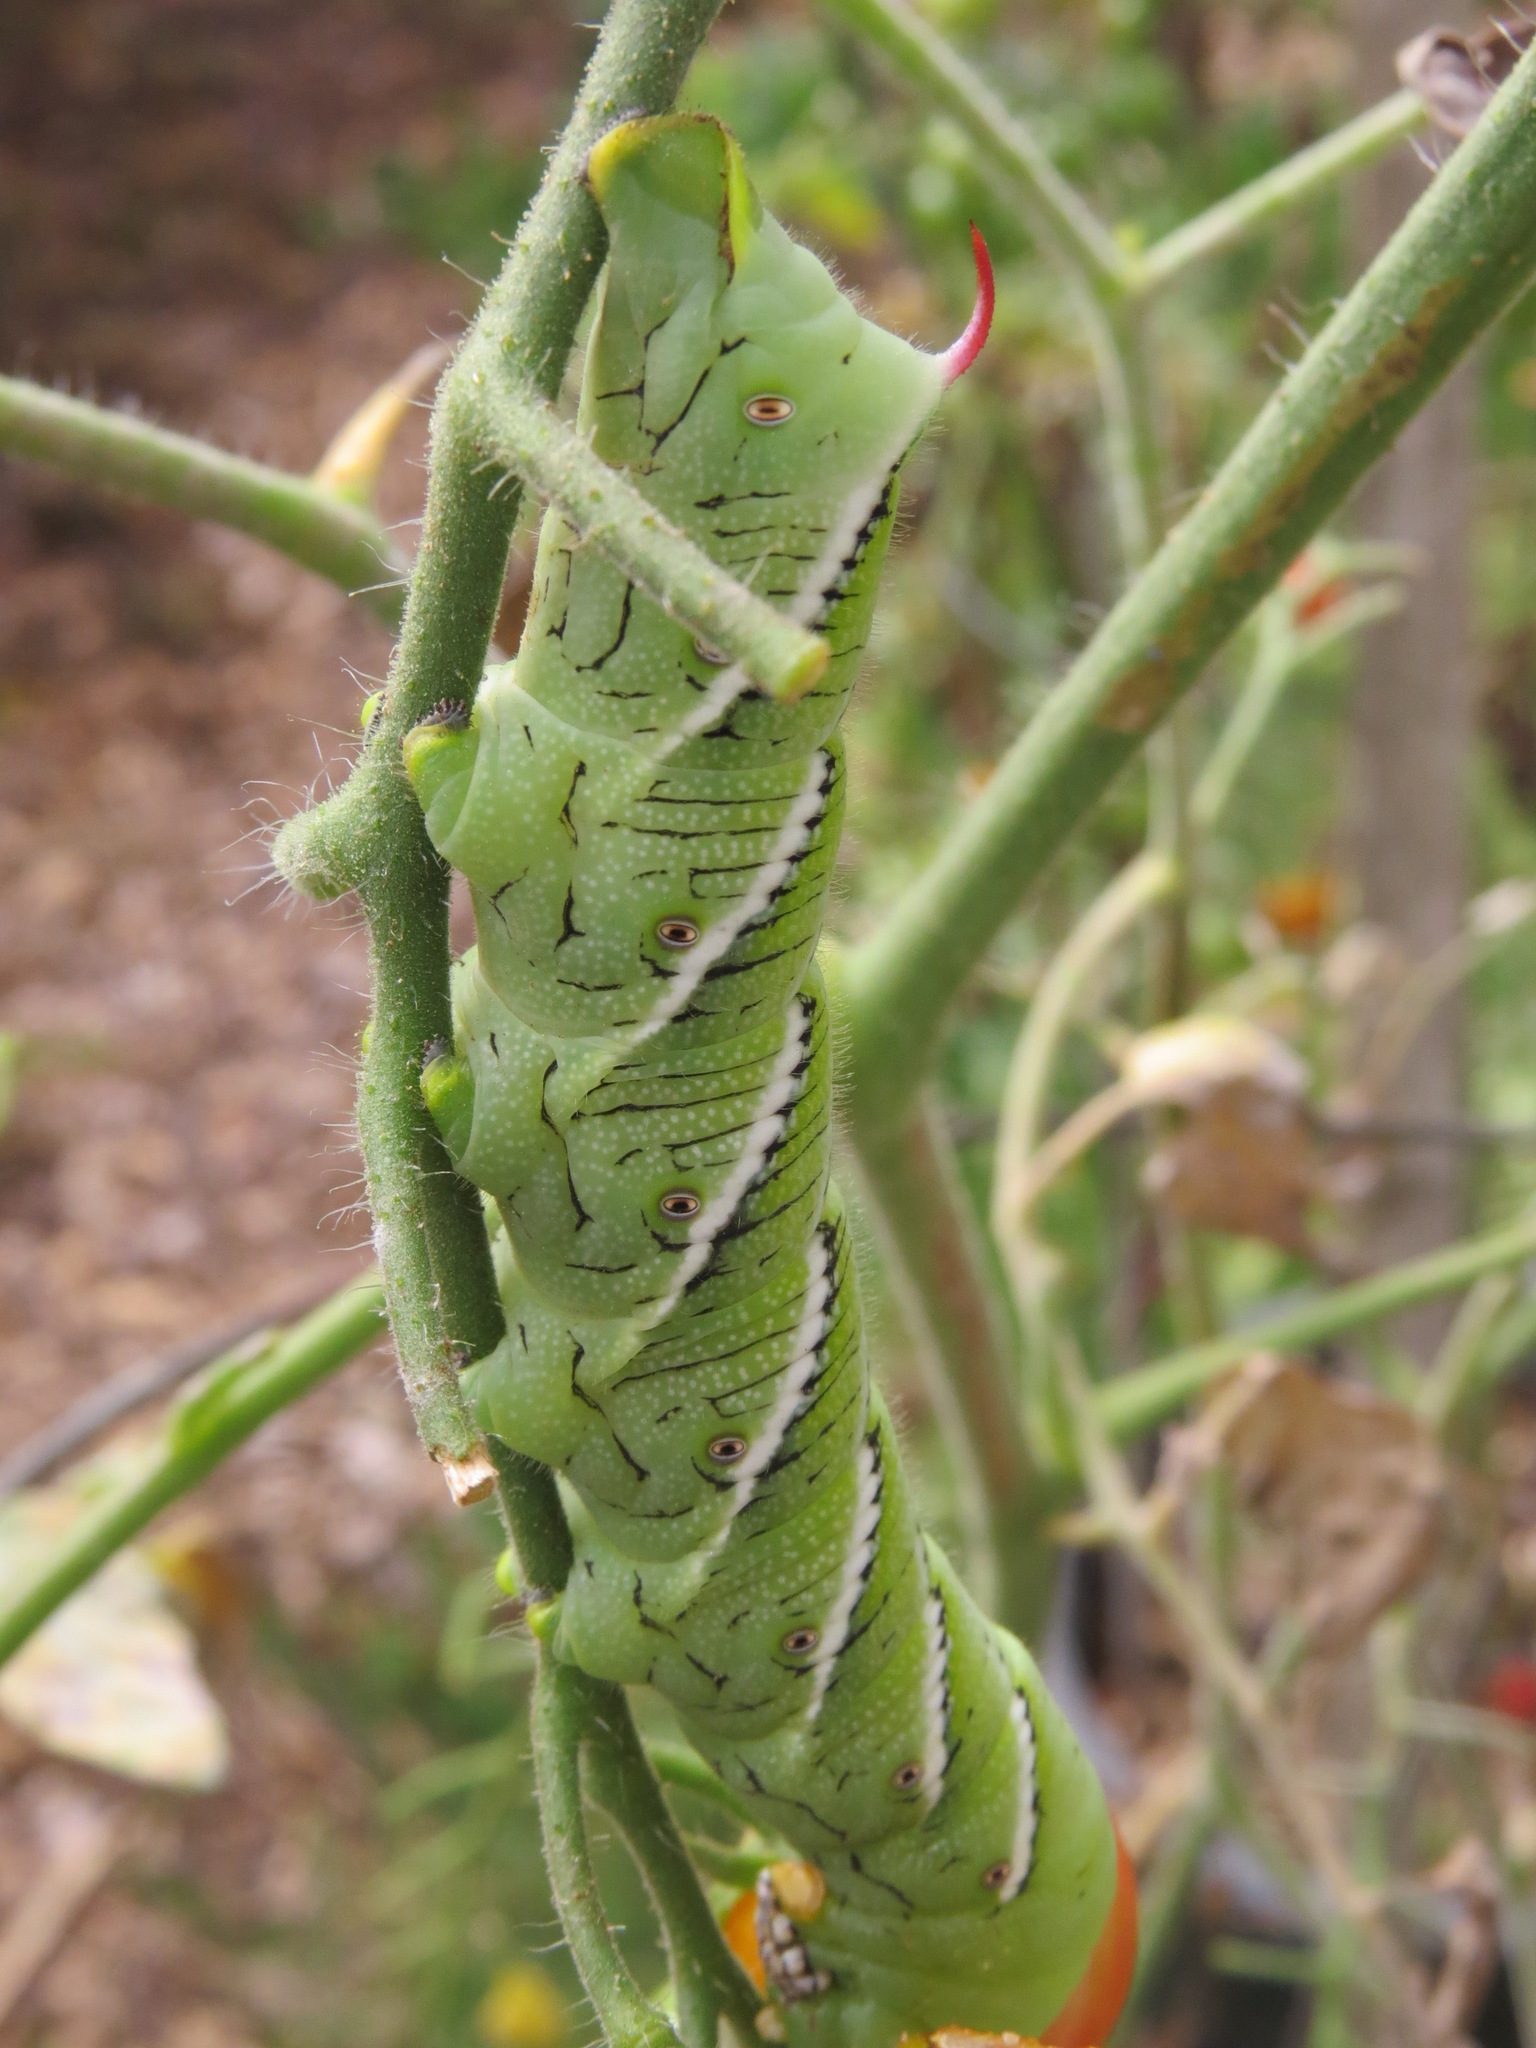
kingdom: Animalia
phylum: Arthropoda
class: Insecta
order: Lepidoptera
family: Sphingidae
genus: Manduca
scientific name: Manduca sexta
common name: Carolina sphinx
